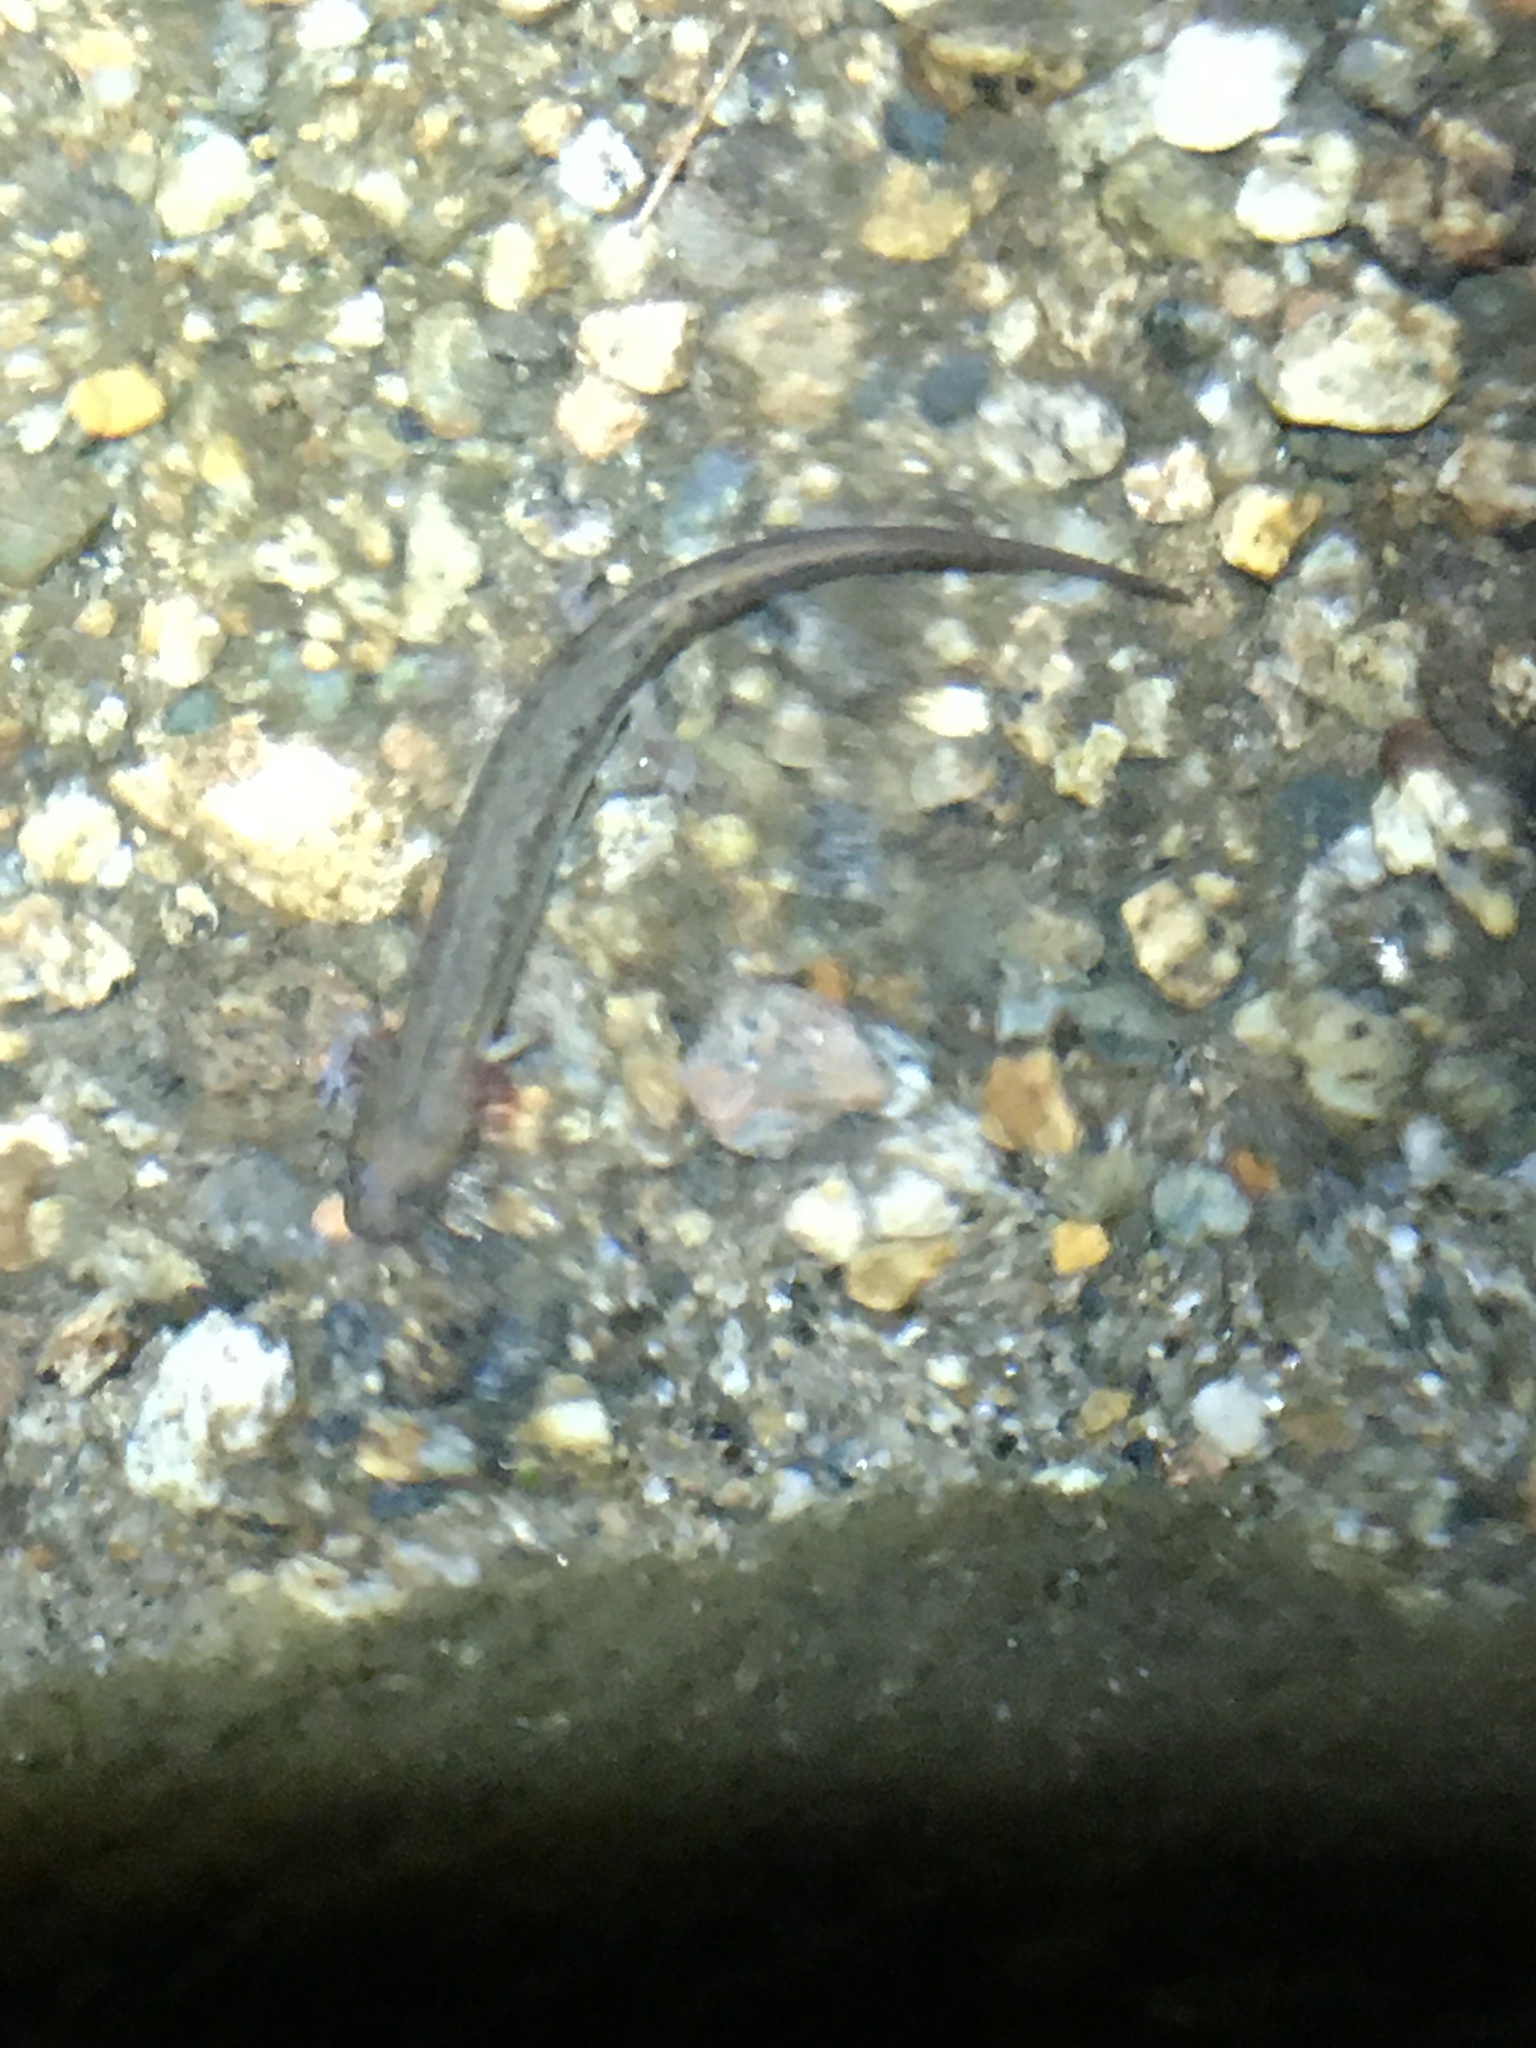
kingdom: Animalia
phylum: Chordata
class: Amphibia
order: Caudata
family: Plethodontidae
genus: Eurycea
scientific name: Eurycea bislineata
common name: Northern two-lined salamander
